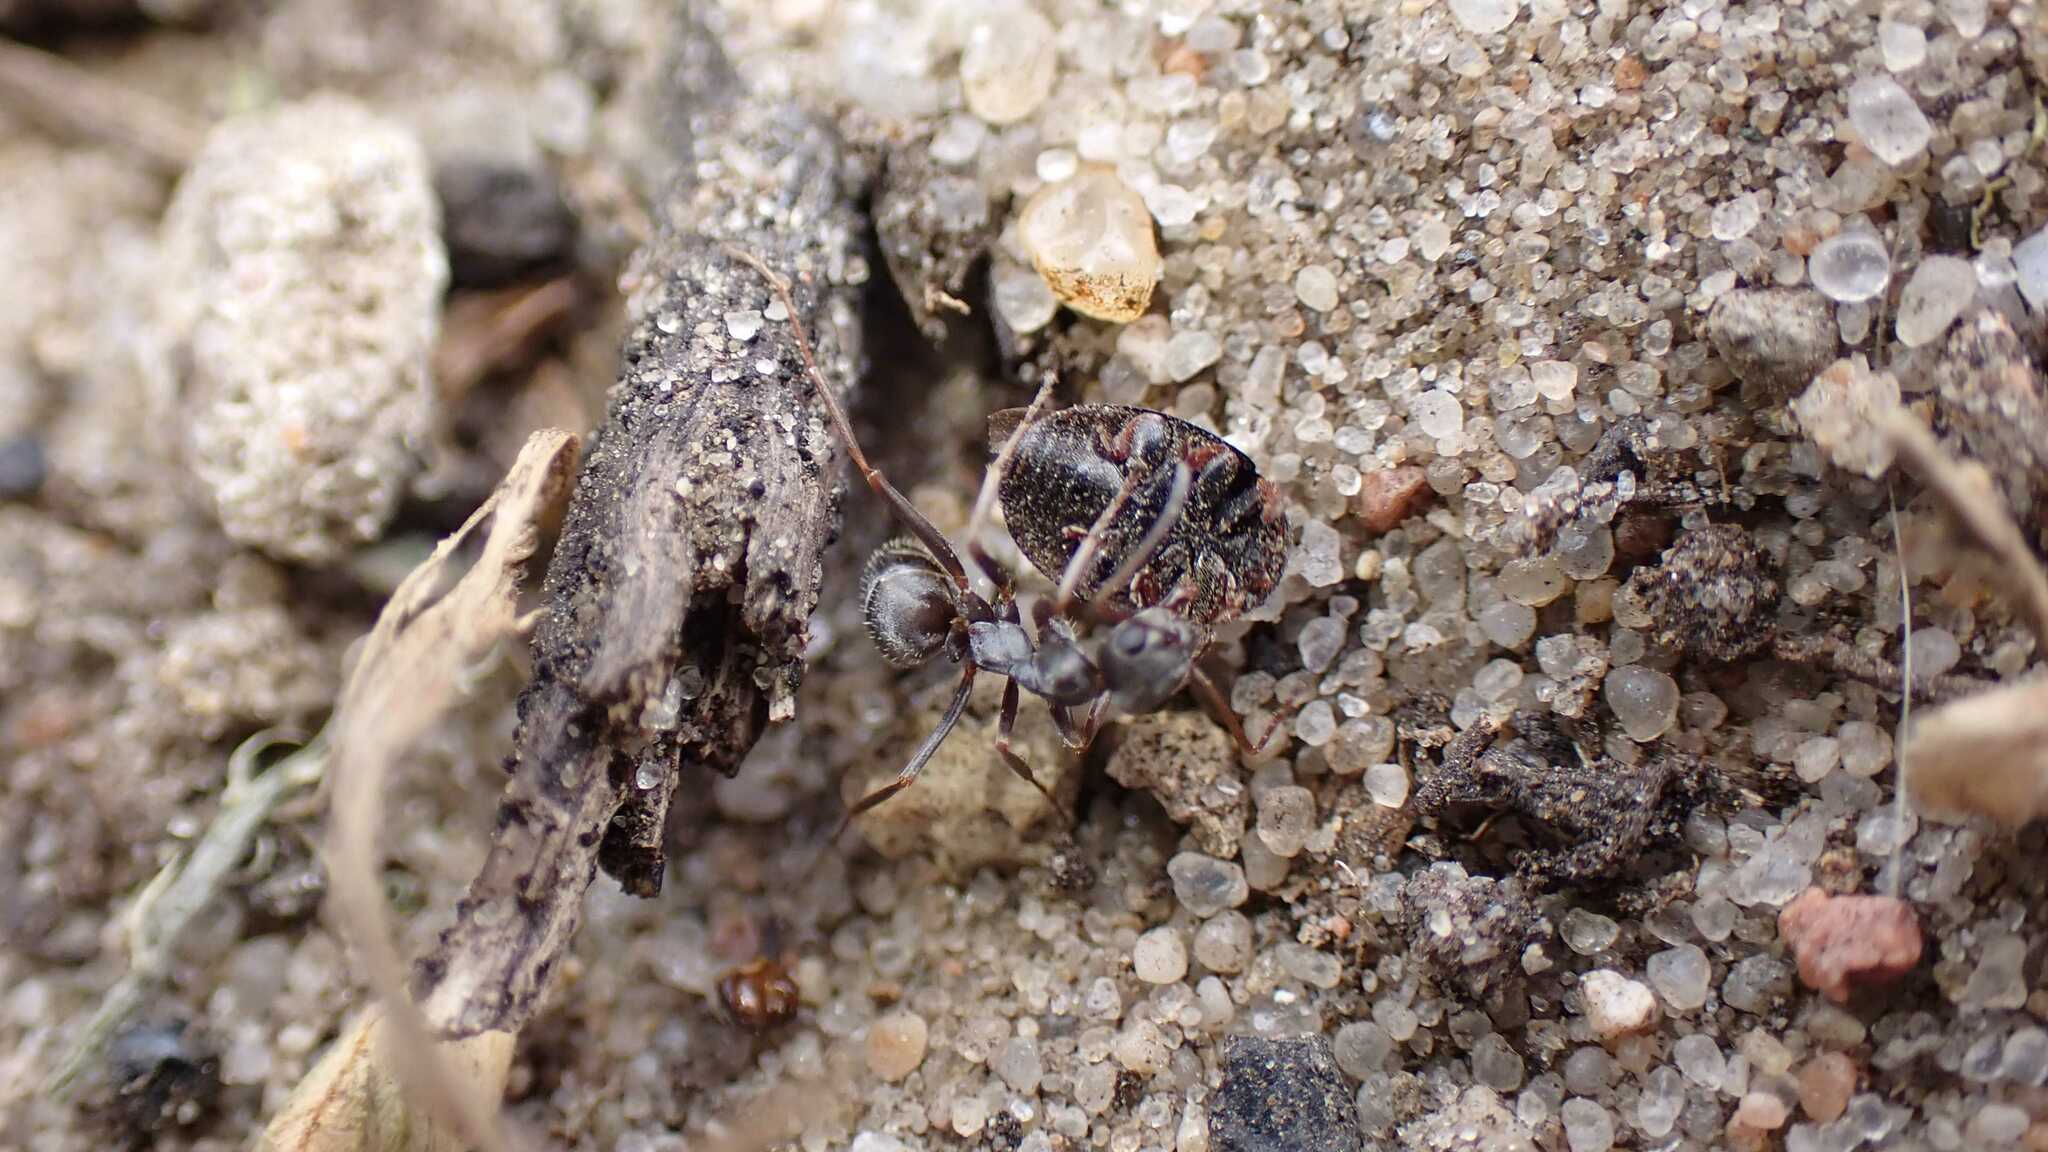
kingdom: Animalia
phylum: Arthropoda
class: Insecta
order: Hymenoptera
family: Formicidae
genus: Formica
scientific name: Formica cinerea
